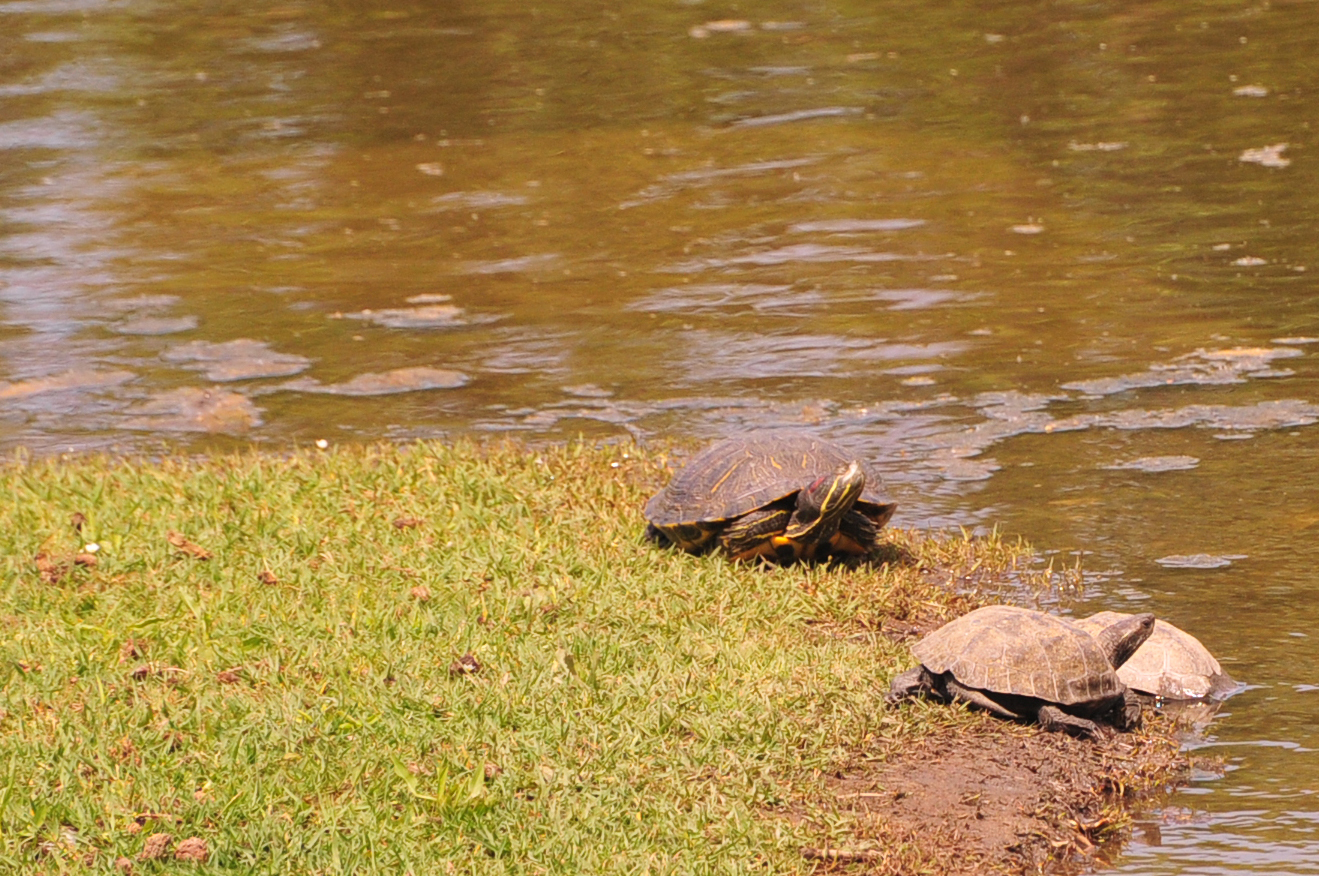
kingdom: Animalia
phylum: Chordata
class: Testudines
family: Emydidae
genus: Trachemys
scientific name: Trachemys scripta
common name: Slider
